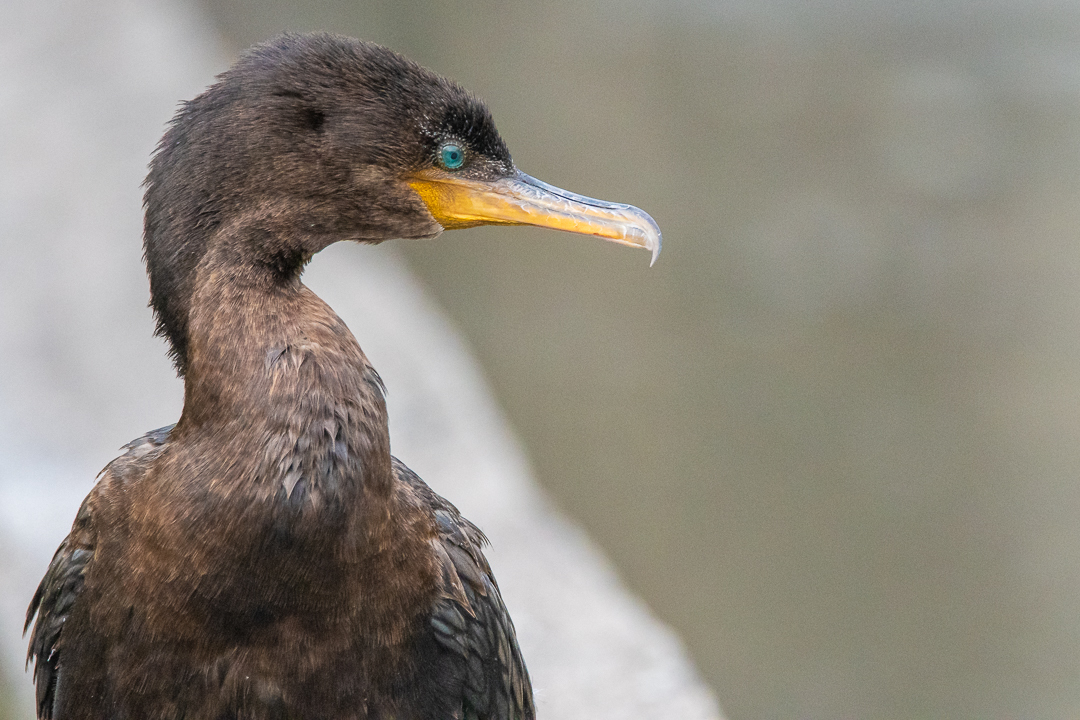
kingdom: Animalia
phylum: Chordata
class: Aves
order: Suliformes
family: Phalacrocoracidae
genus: Phalacrocorax
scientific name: Phalacrocorax brasilianus
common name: Neotropic cormorant
